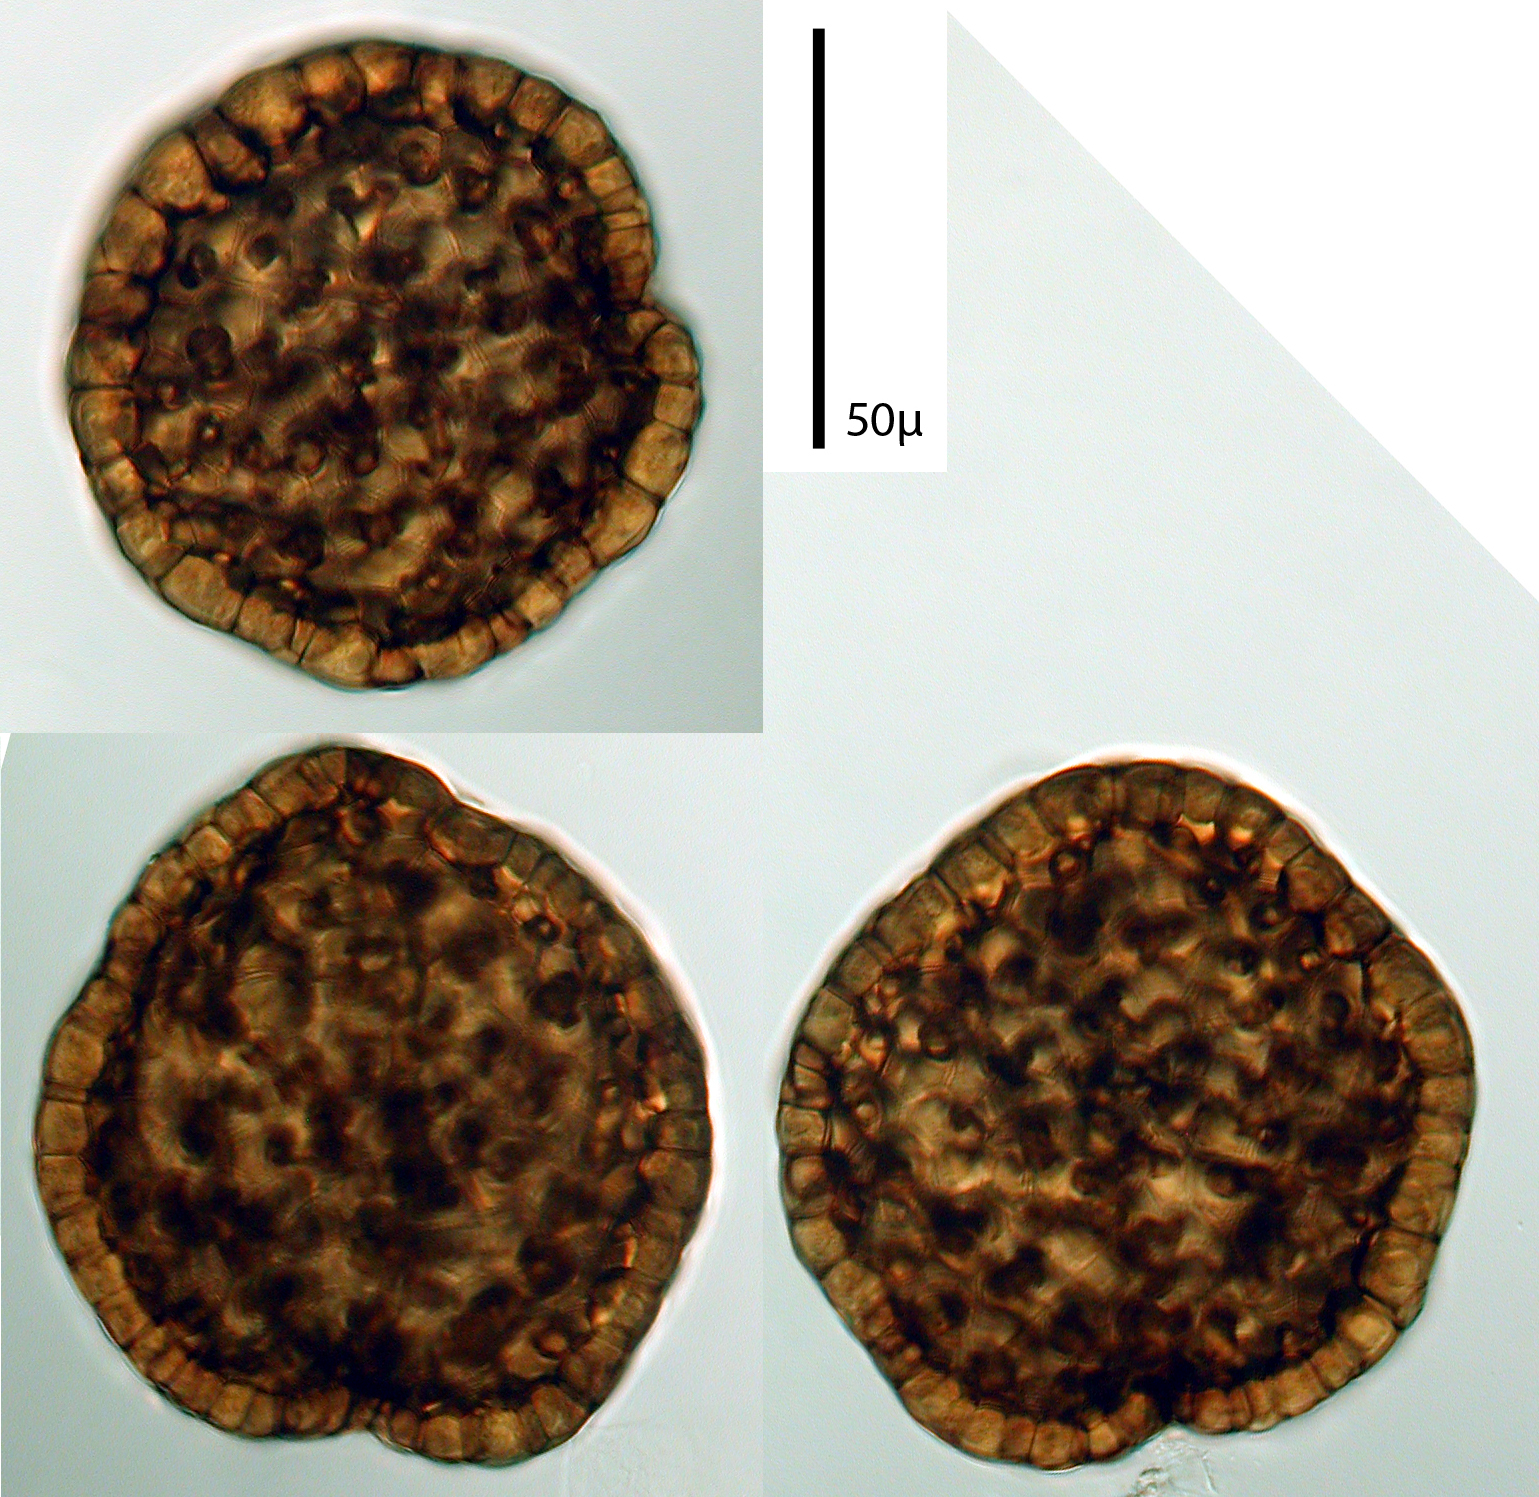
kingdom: Fungi
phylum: Ascomycota
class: Dothideomycetes
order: Pleosporales
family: Melanommataceae
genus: Beverwykella
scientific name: Beverwykella pulmonaria
